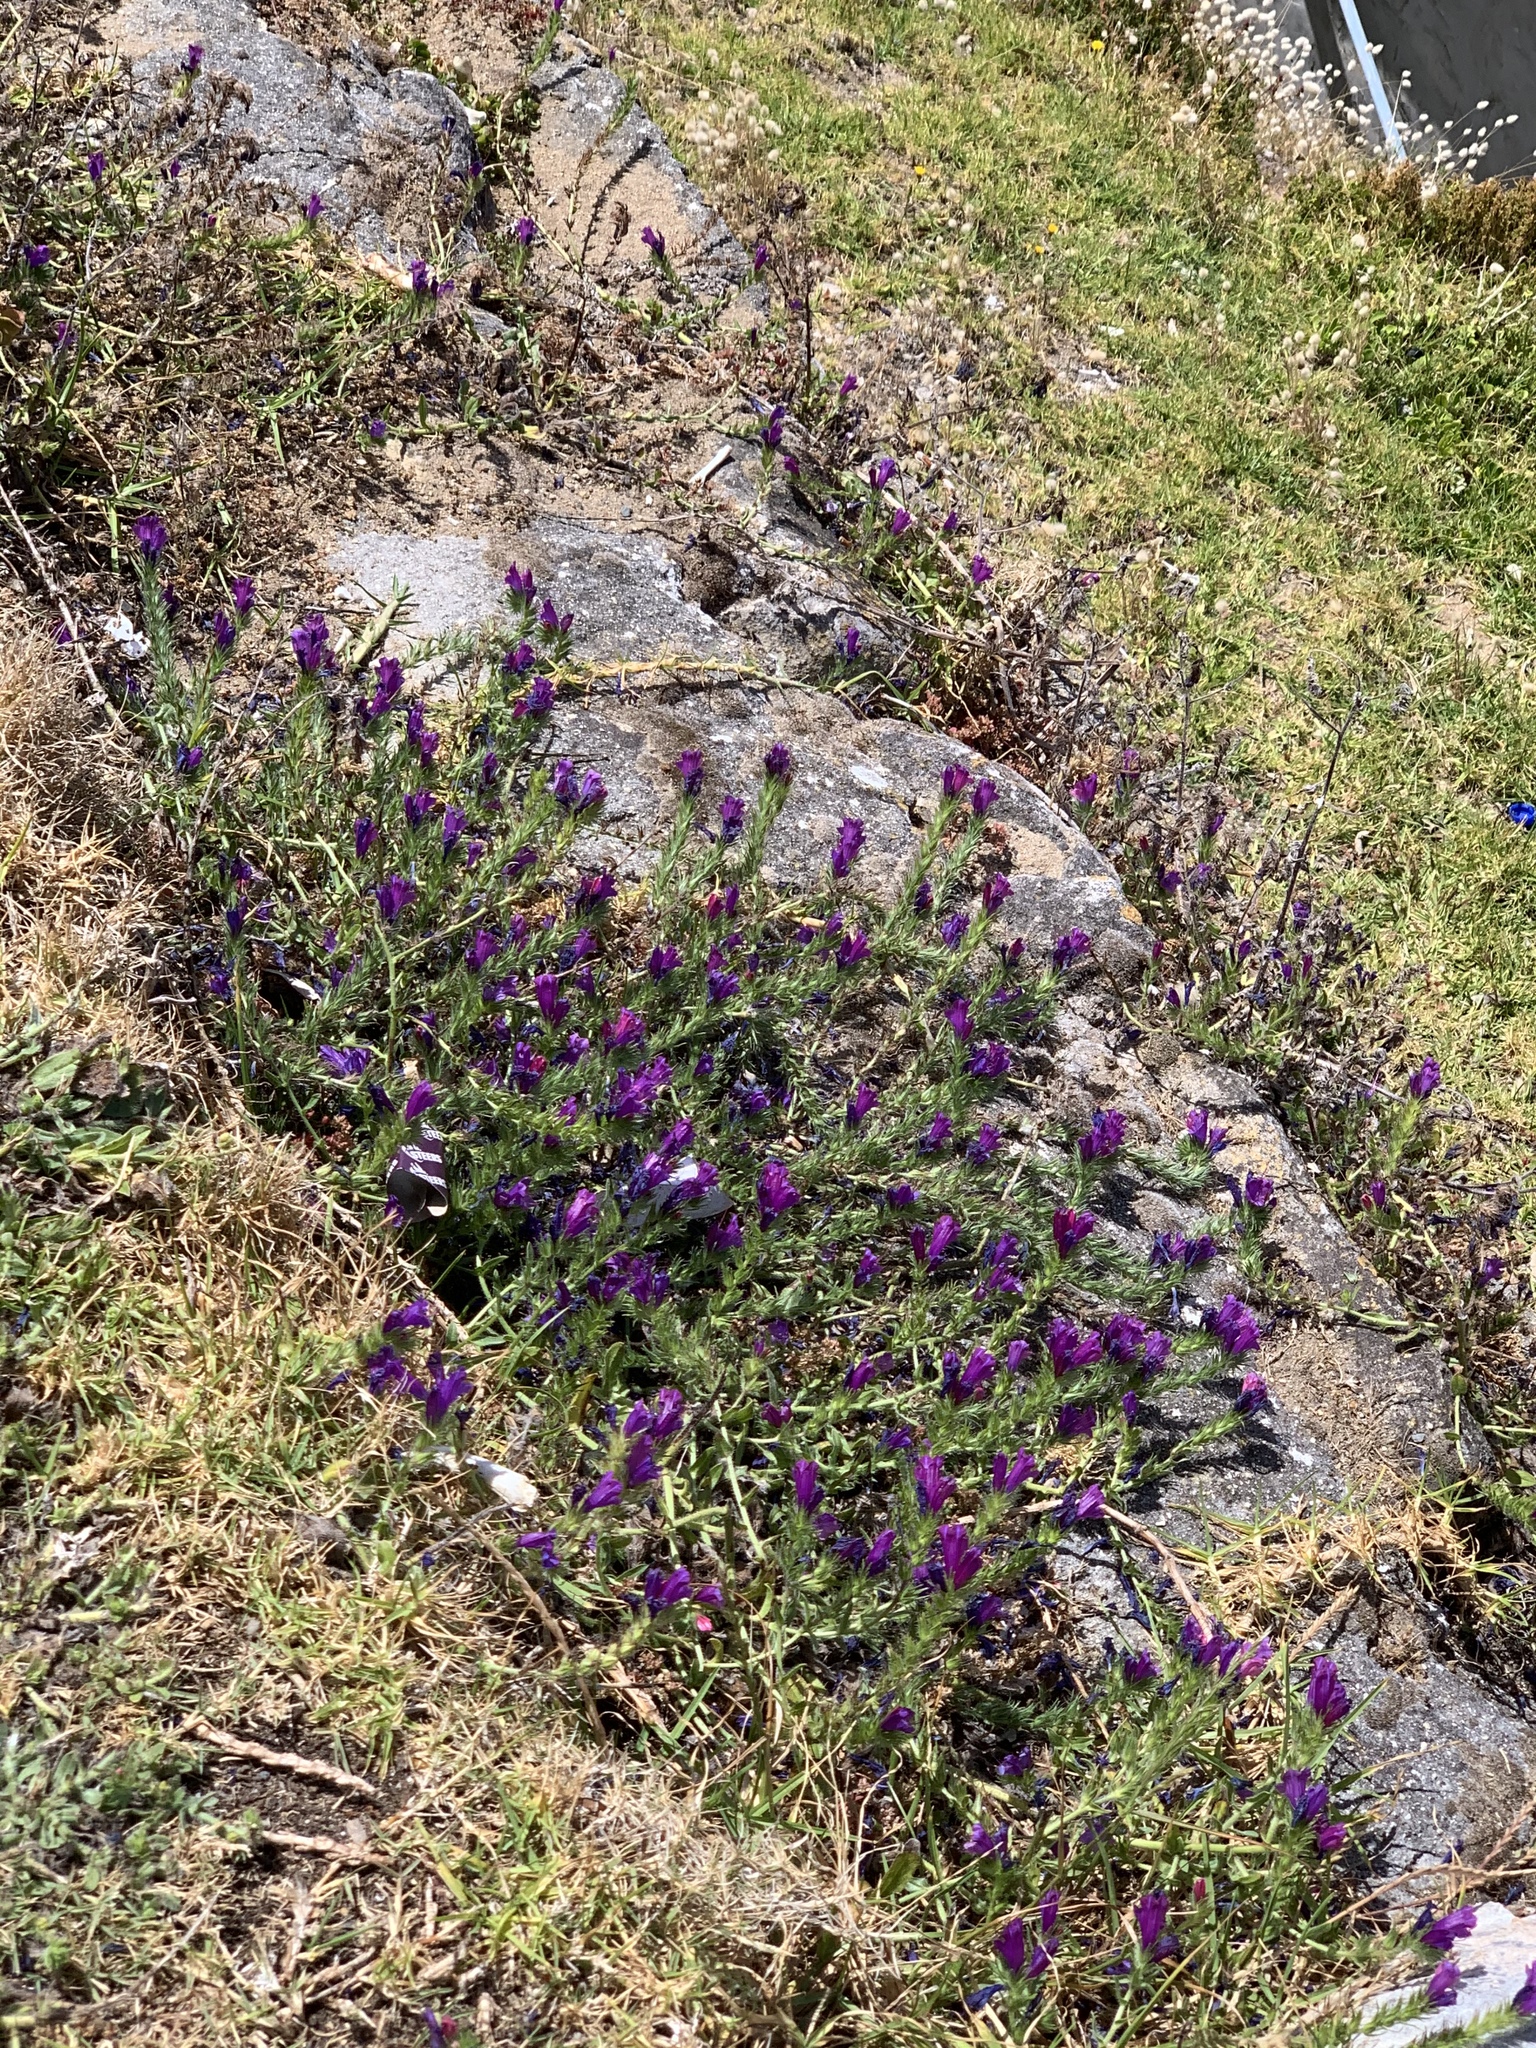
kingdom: Plantae
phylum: Tracheophyta
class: Magnoliopsida
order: Boraginales
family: Boraginaceae
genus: Echium
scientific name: Echium plantagineum
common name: Purple viper's-bugloss
